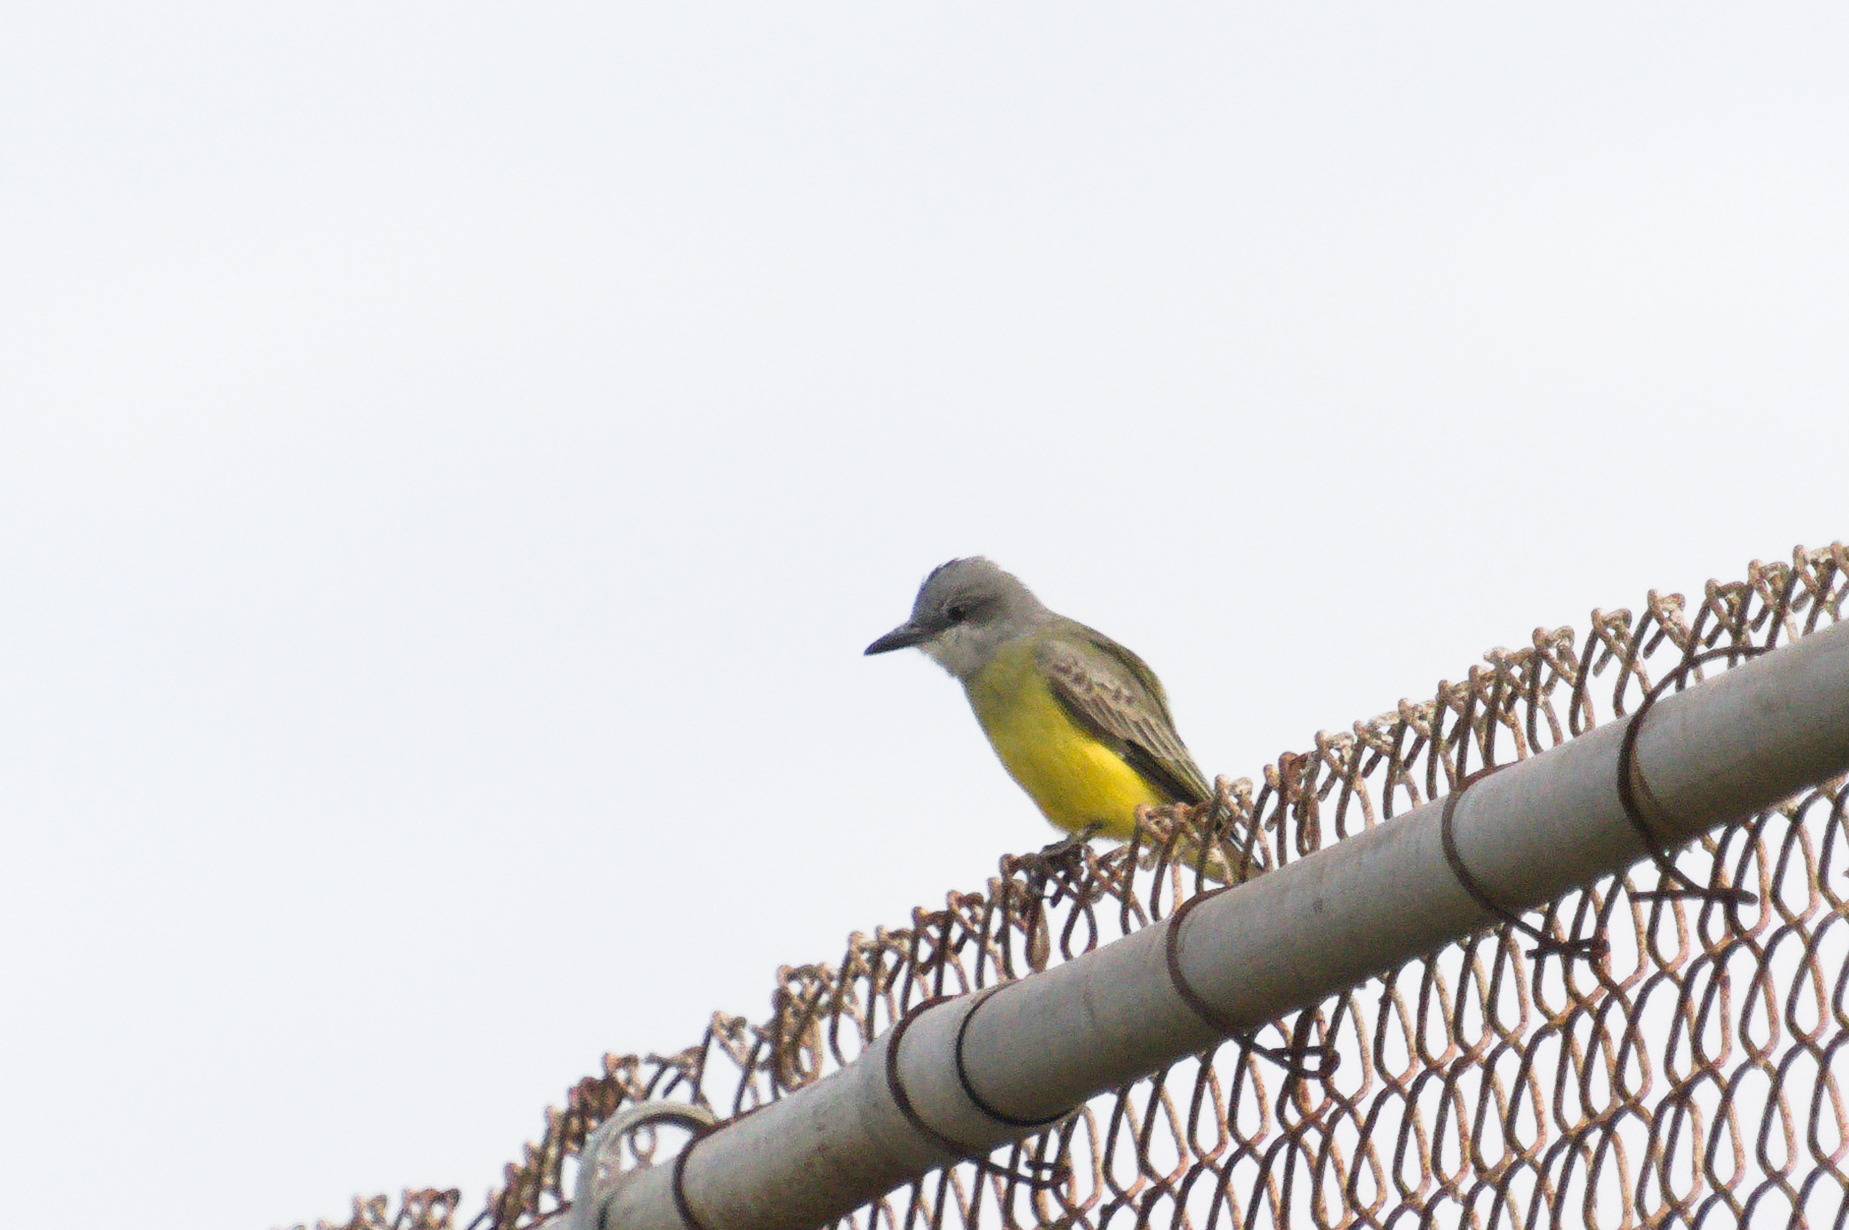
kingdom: Animalia
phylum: Chordata
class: Aves
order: Passeriformes
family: Tyrannidae
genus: Tyrannus
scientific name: Tyrannus melancholicus
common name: Tropical kingbird
